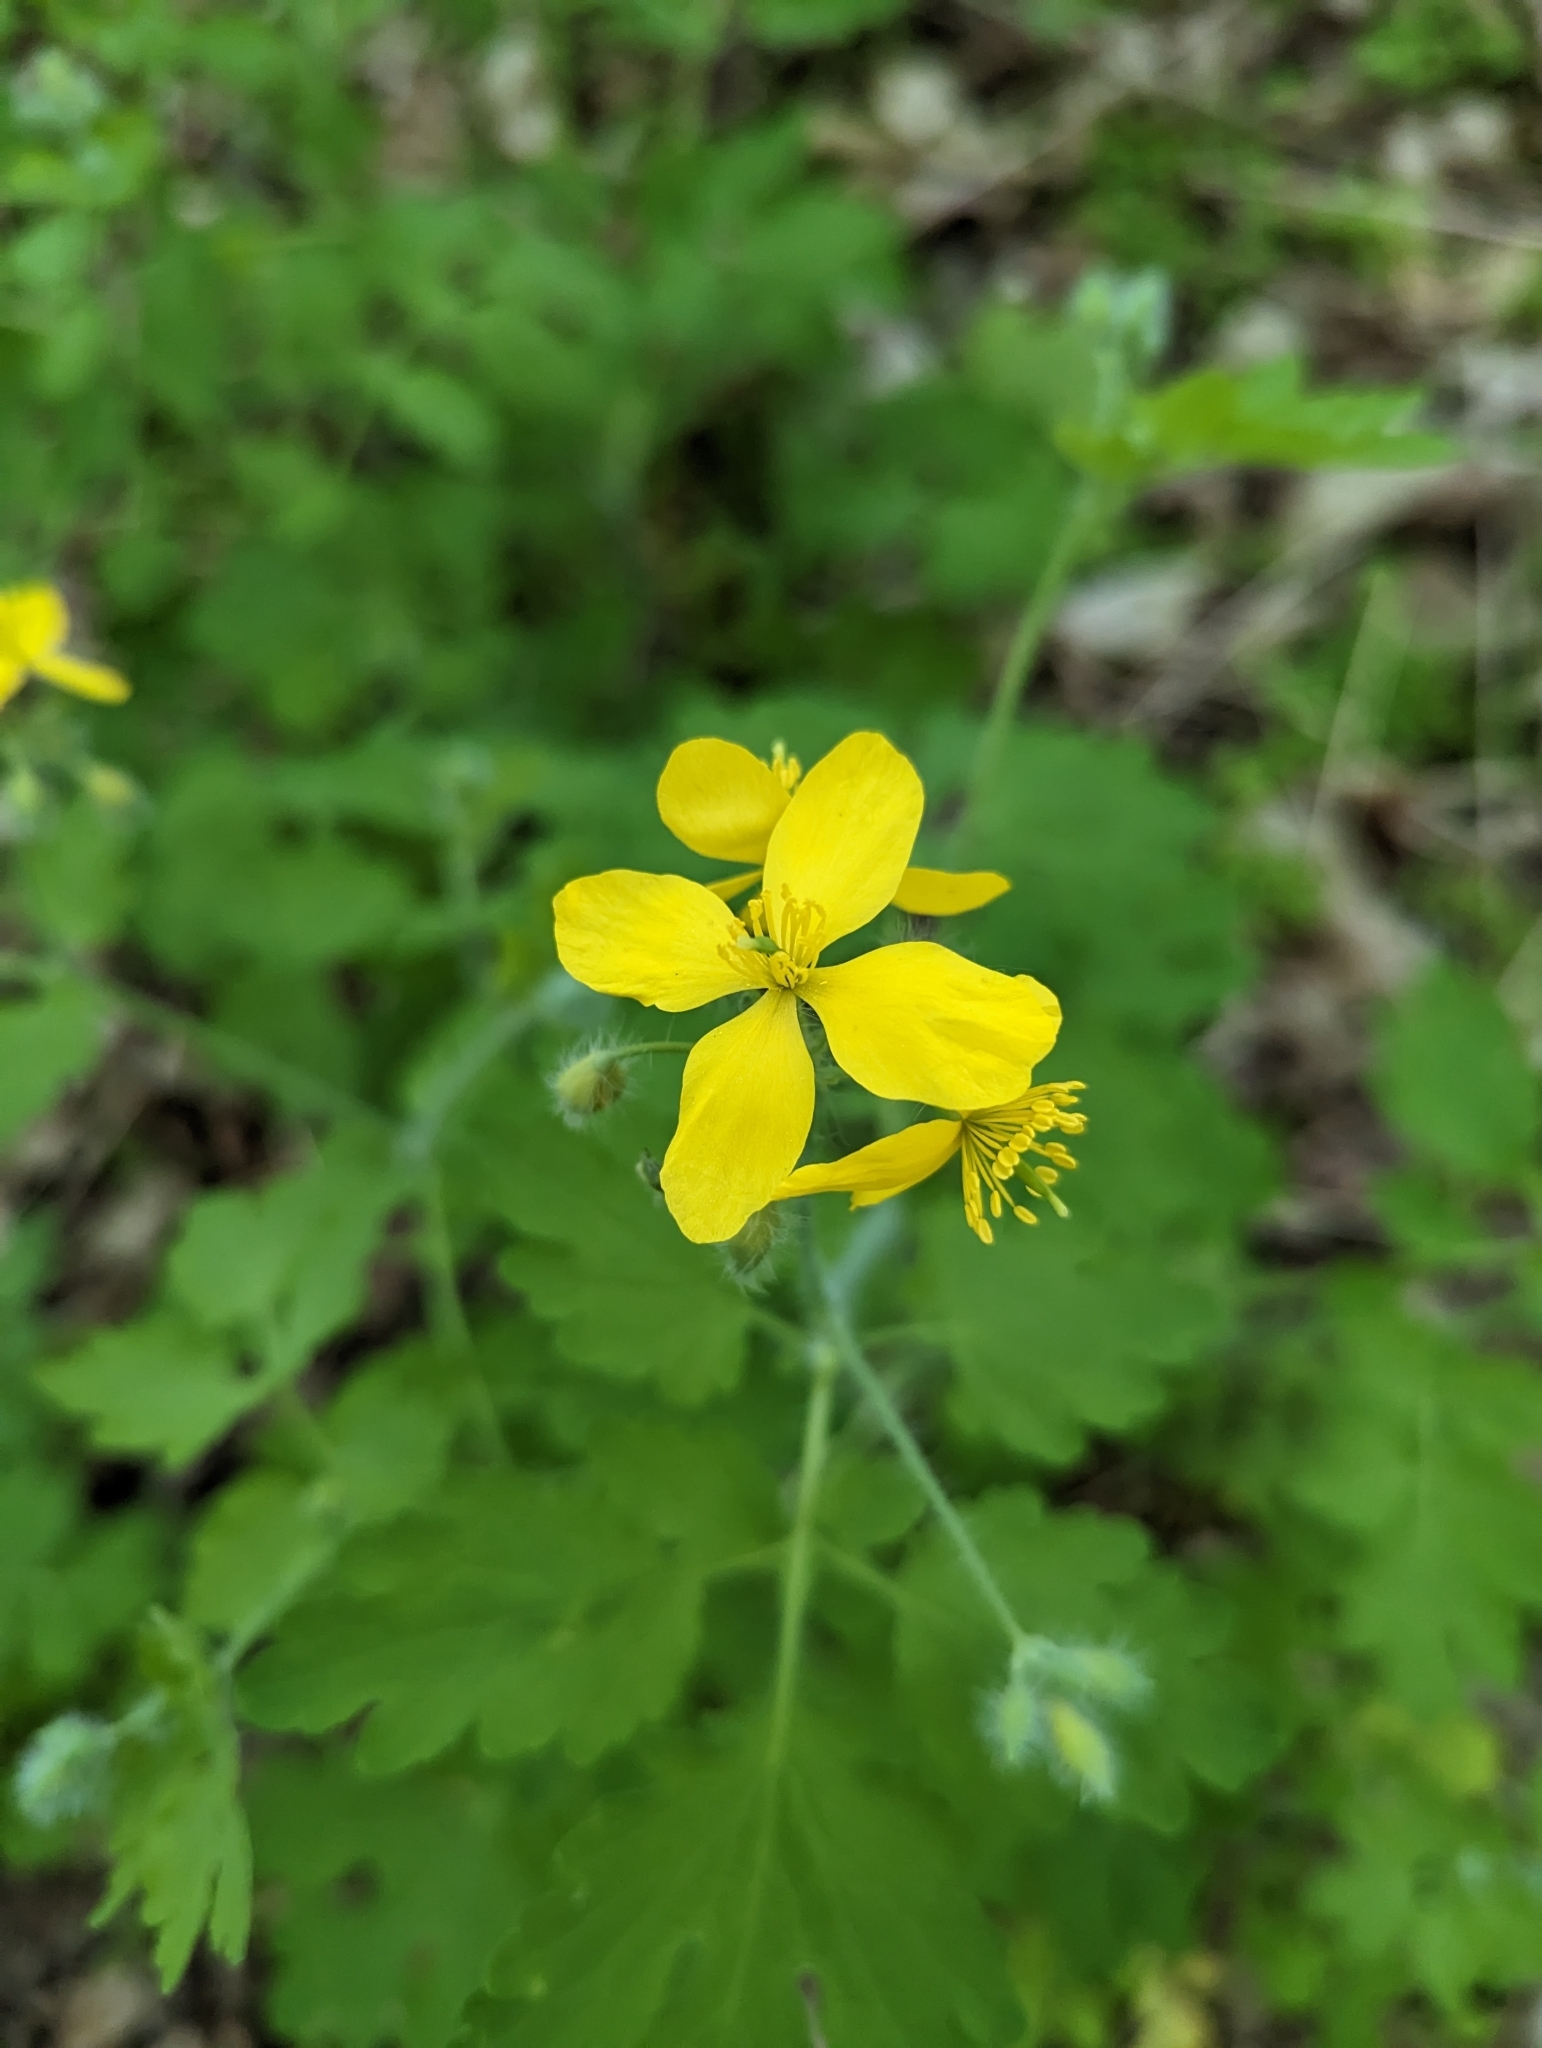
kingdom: Plantae
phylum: Tracheophyta
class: Magnoliopsida
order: Ranunculales
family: Papaveraceae
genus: Chelidonium
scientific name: Chelidonium majus
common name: Greater celandine
